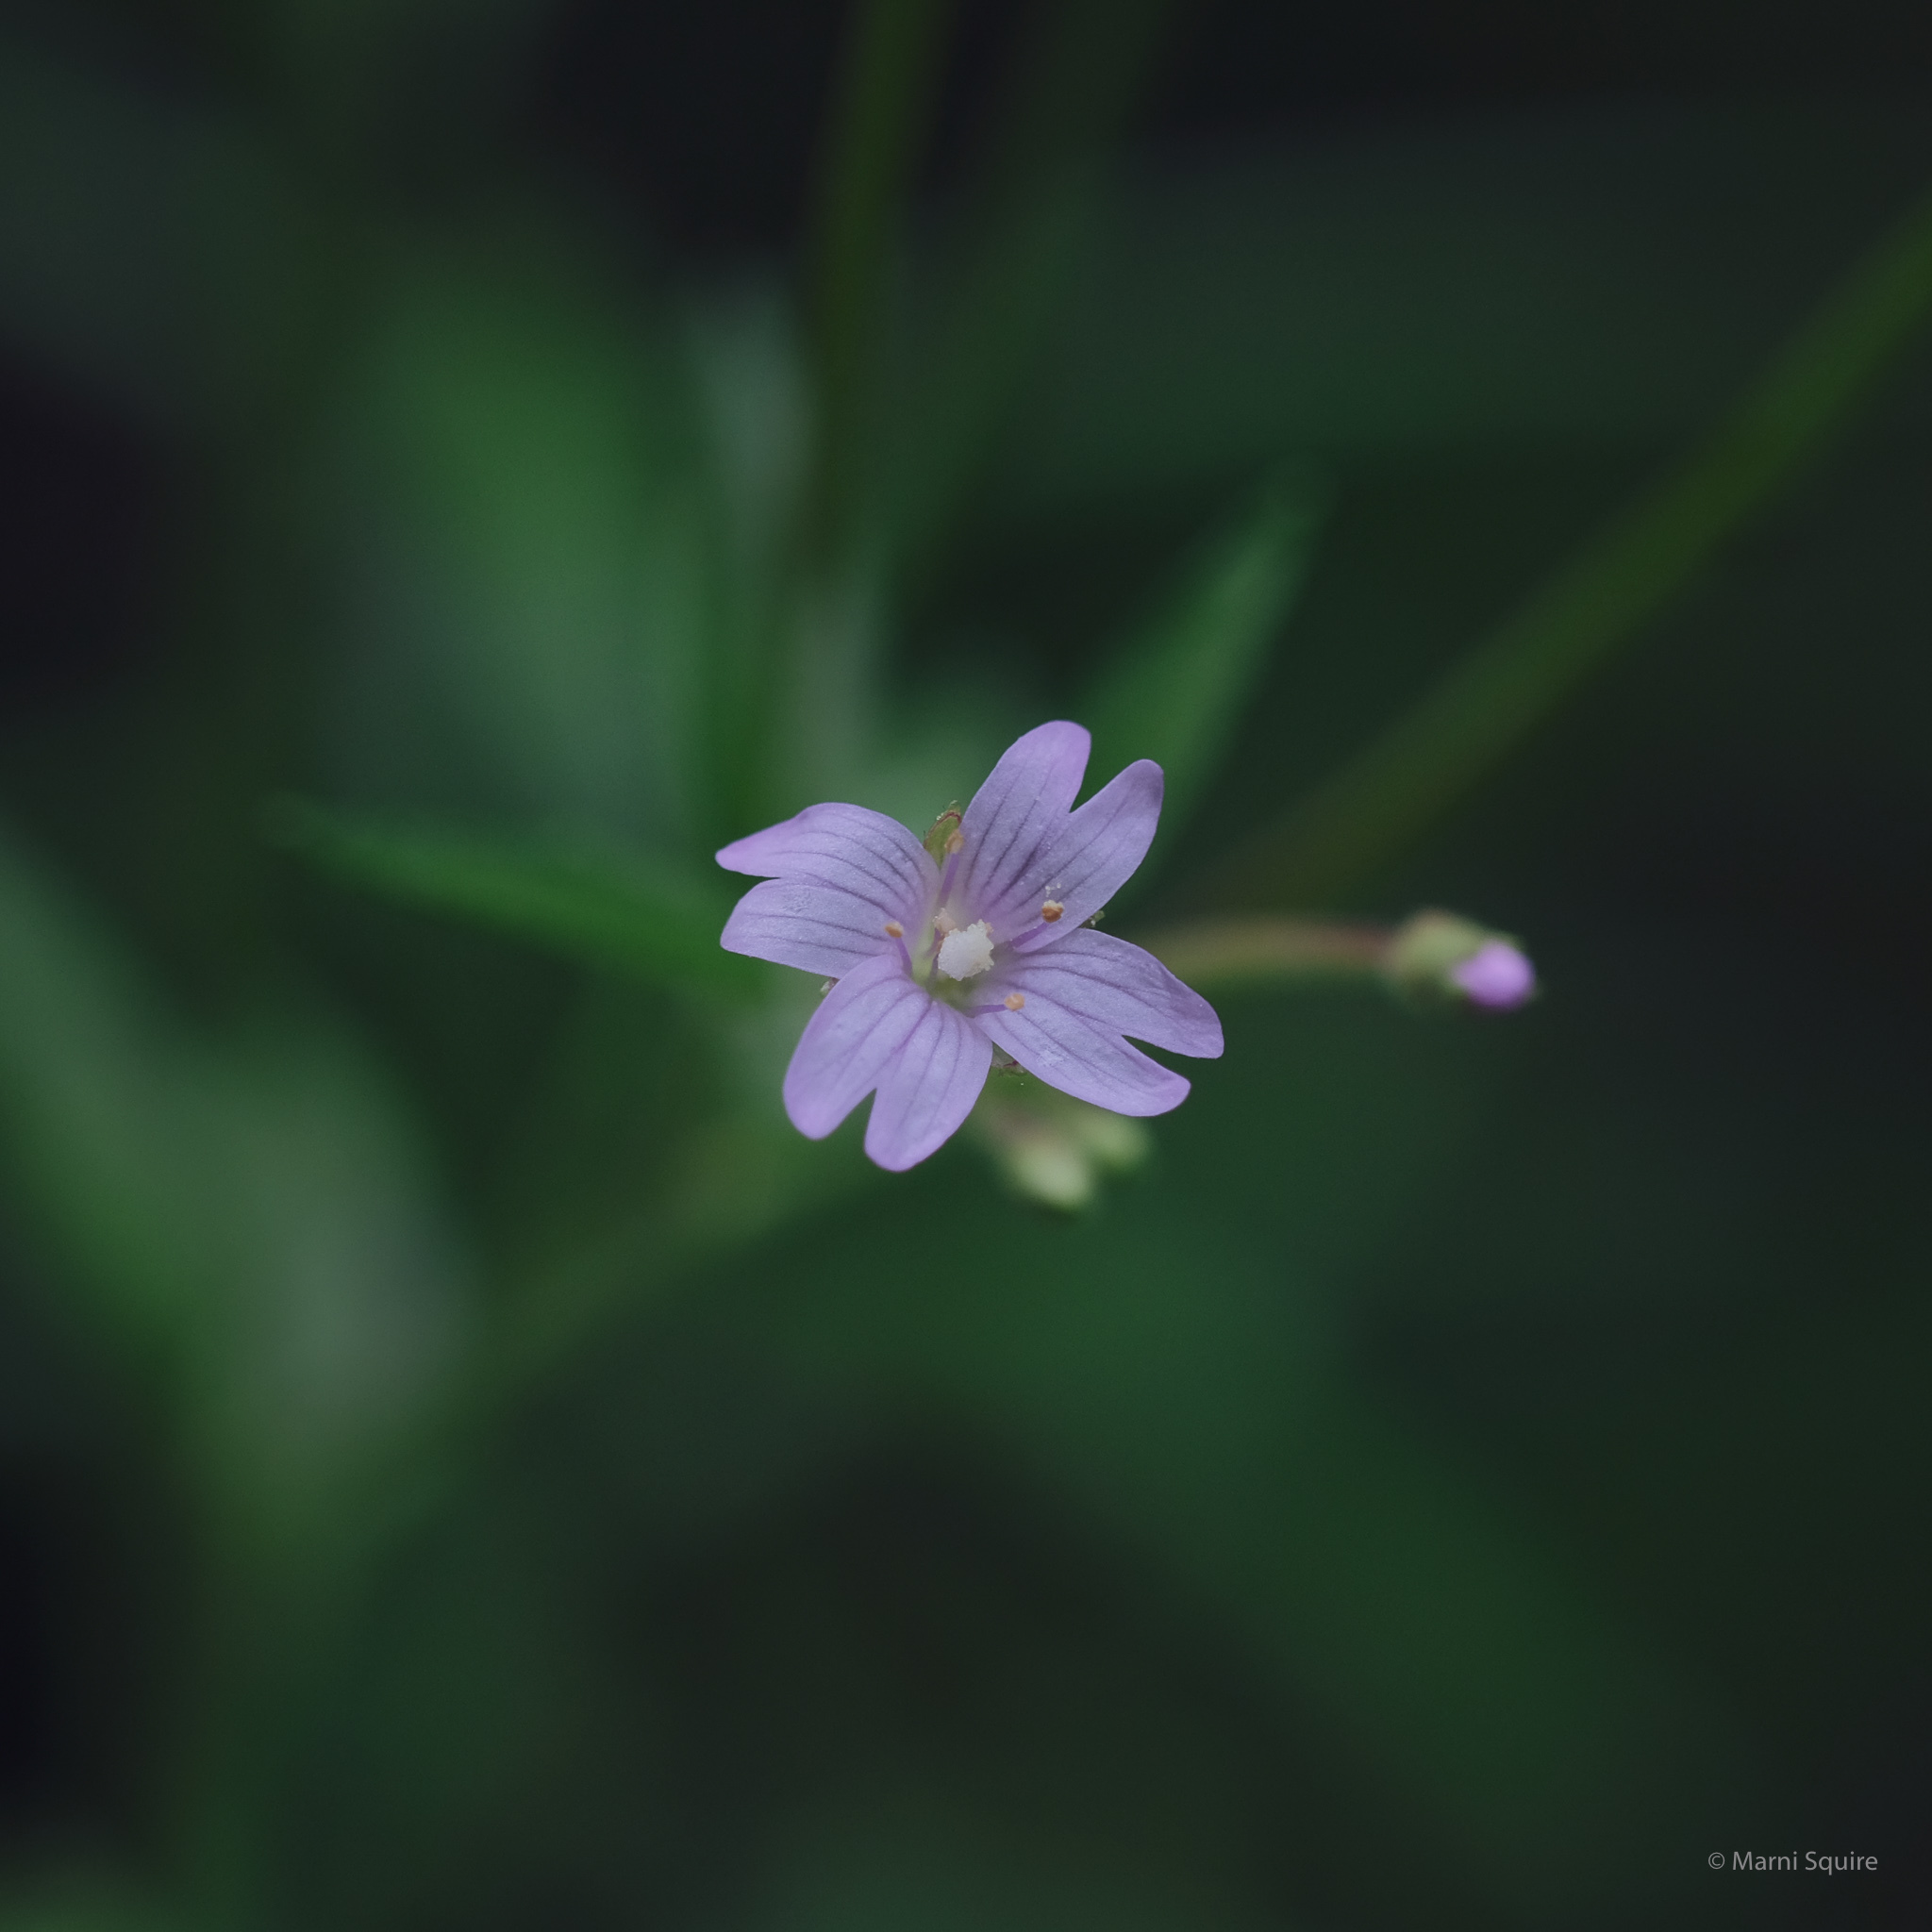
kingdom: Plantae
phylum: Tracheophyta
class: Magnoliopsida
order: Myrtales
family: Onagraceae
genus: Epilobium
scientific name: Epilobium ciliatum
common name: American willowherb
